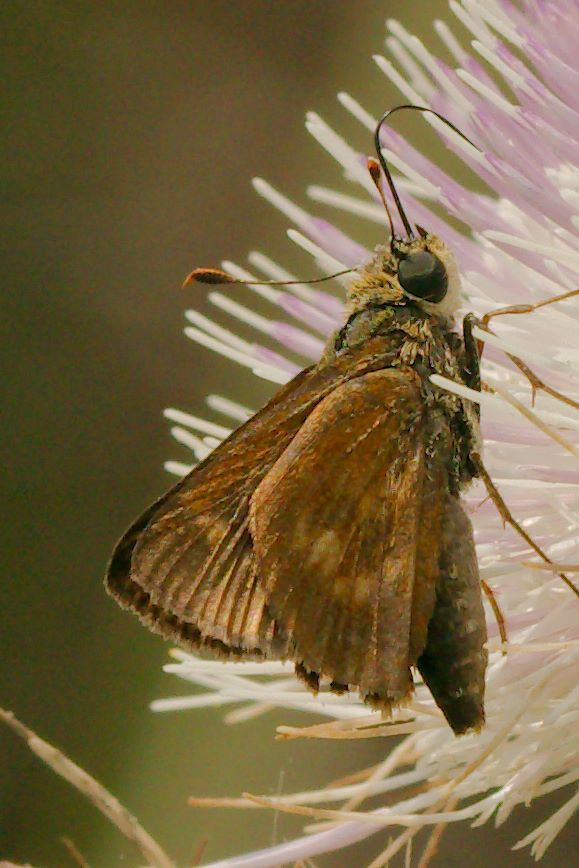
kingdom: Animalia
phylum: Arthropoda
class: Insecta
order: Lepidoptera
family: Hesperiidae
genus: Polites
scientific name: Polites otho
